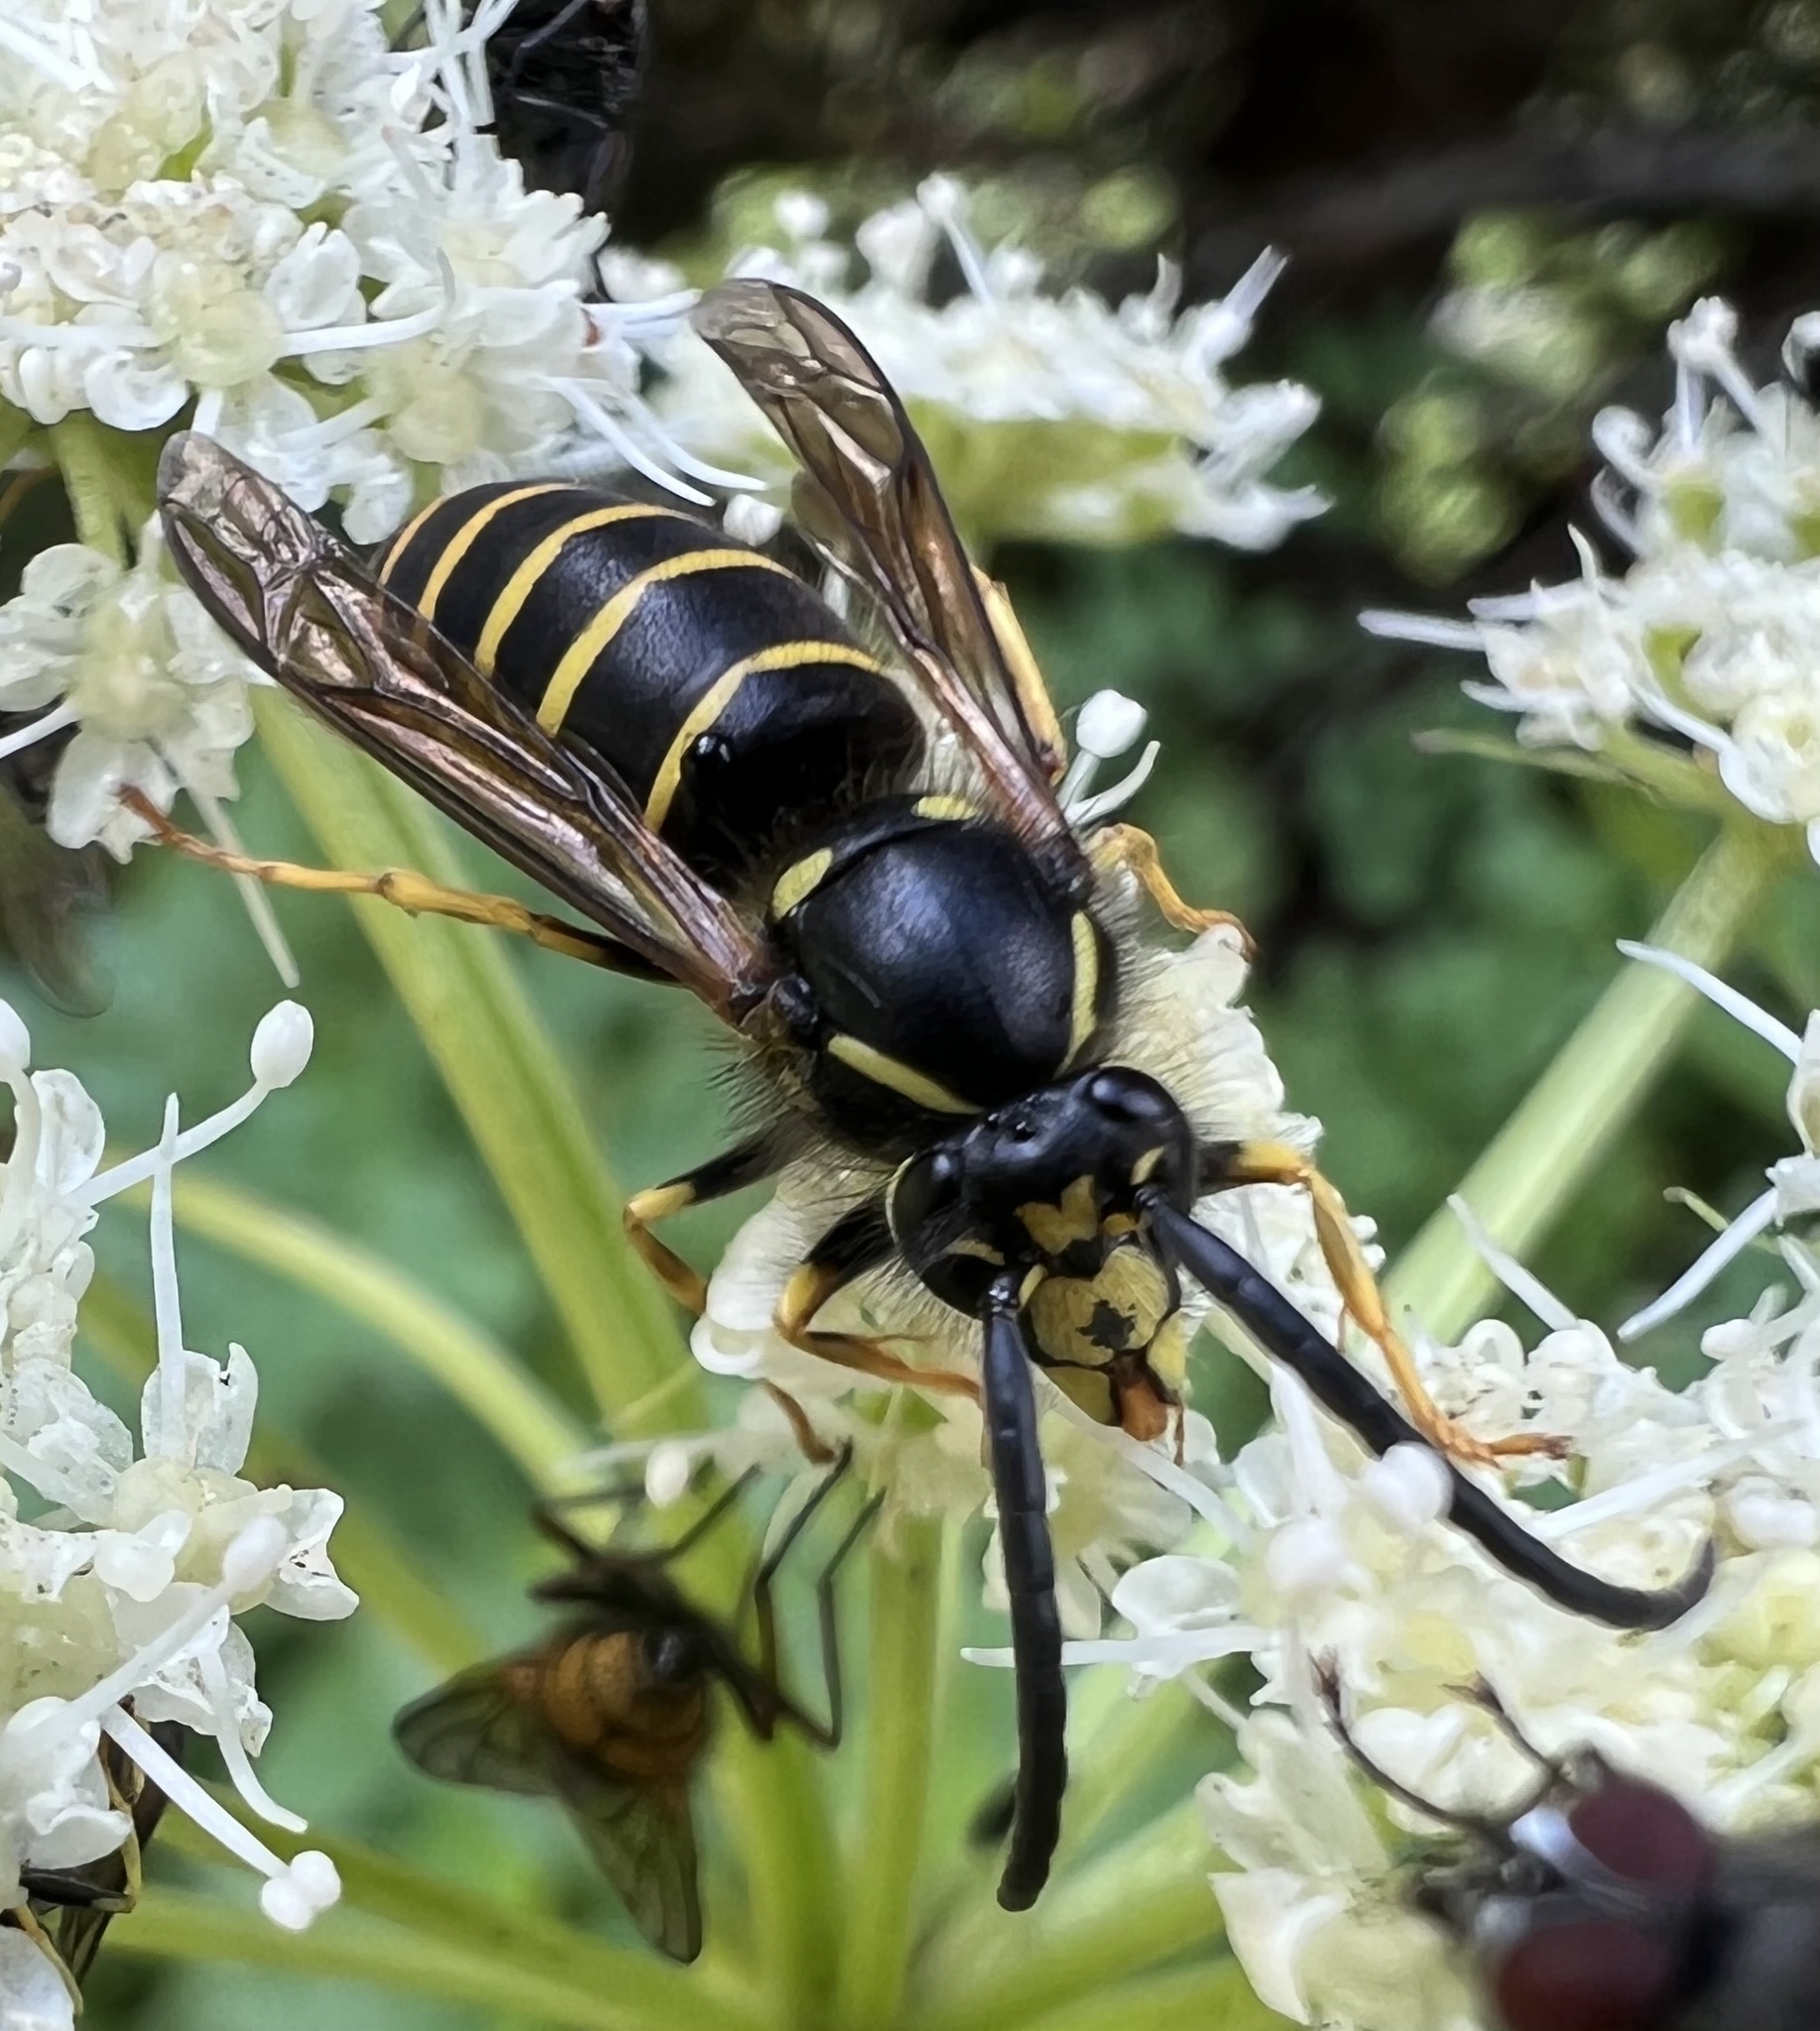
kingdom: Animalia
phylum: Arthropoda
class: Insecta
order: Hymenoptera
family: Vespidae
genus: Dolichovespula
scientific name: Dolichovespula norvegicoides
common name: Northern aerial yellowjacket
